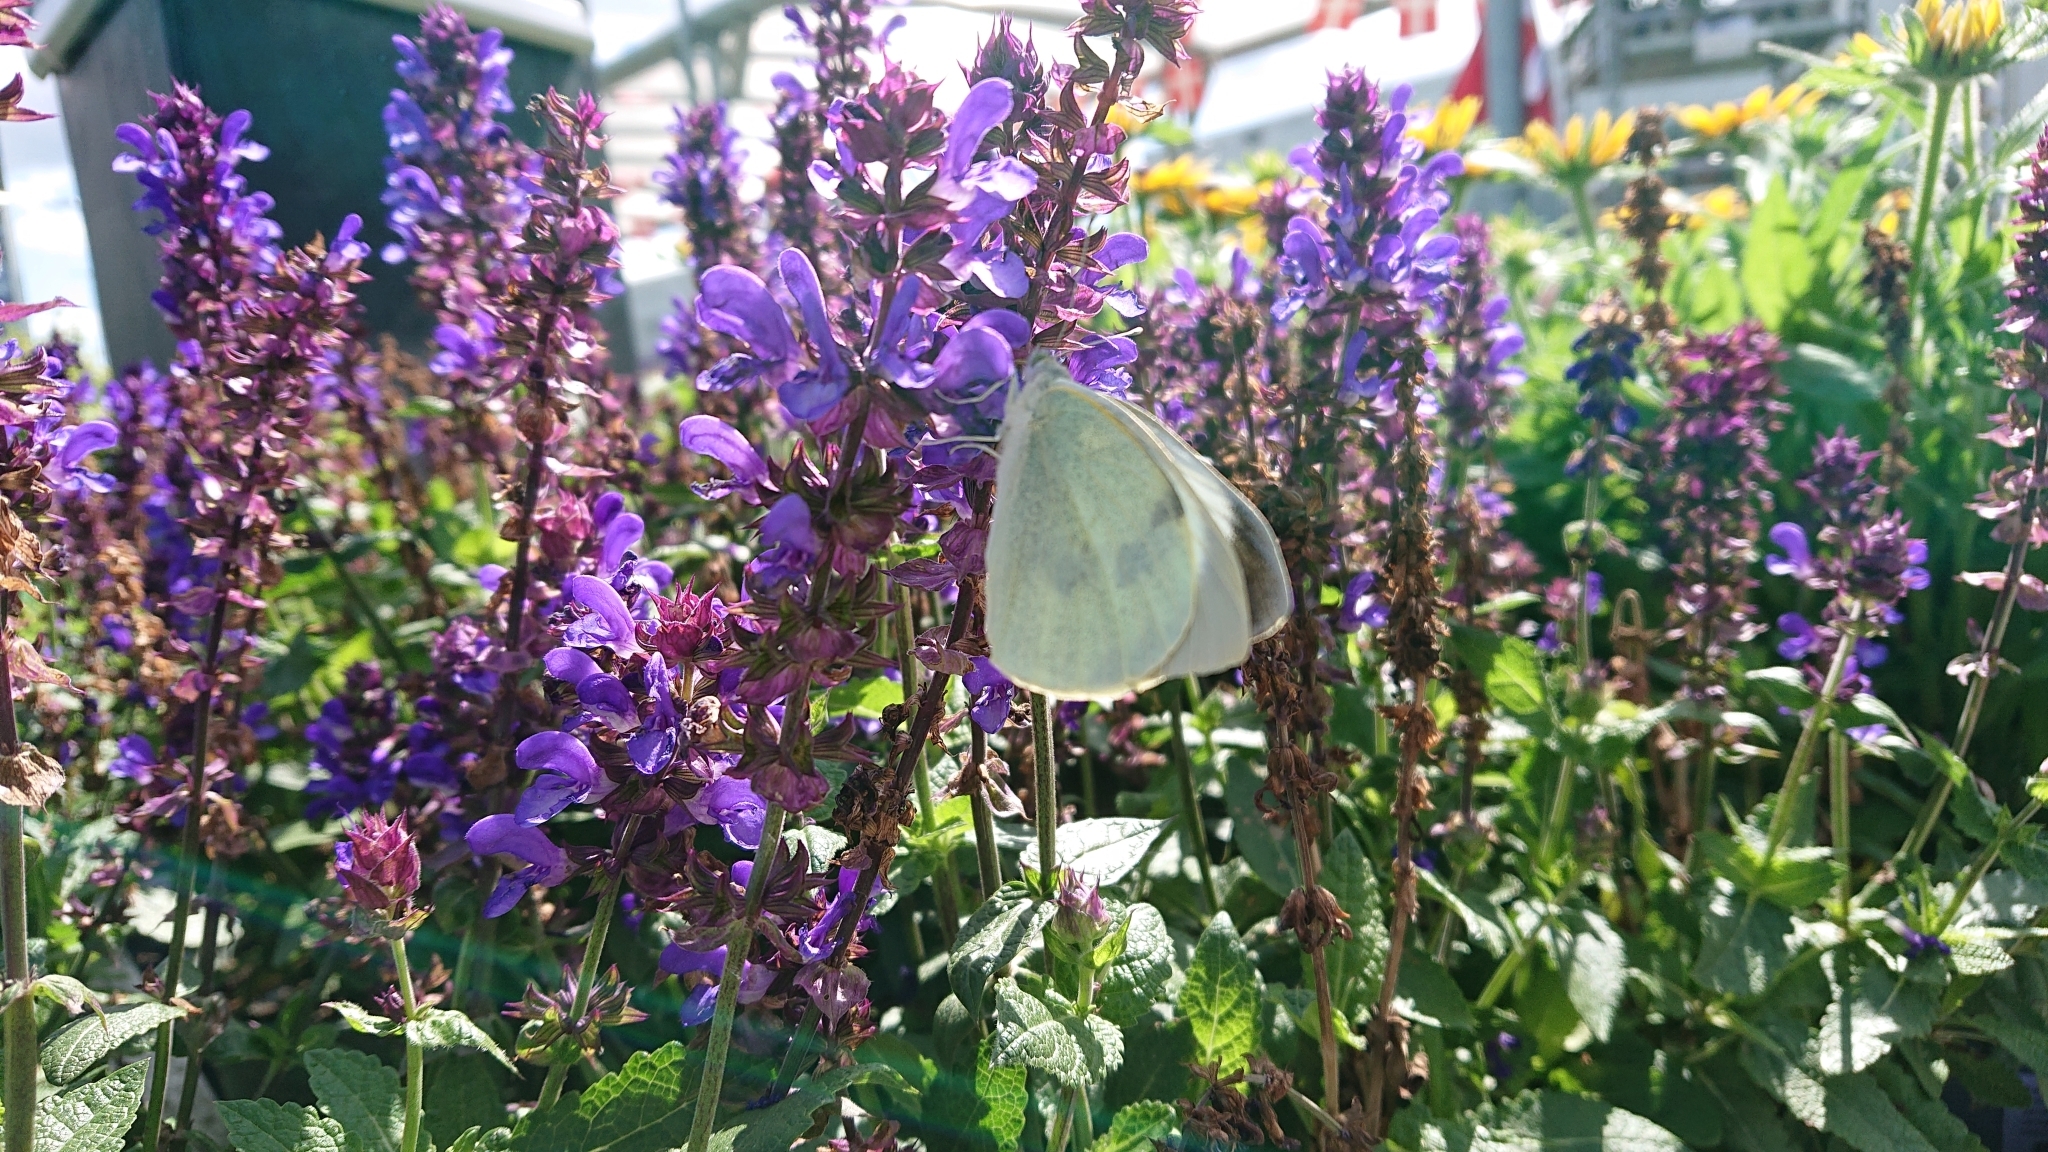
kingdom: Animalia
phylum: Arthropoda
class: Insecta
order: Lepidoptera
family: Pieridae
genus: Pieris
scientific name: Pieris brassicae
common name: Large white
